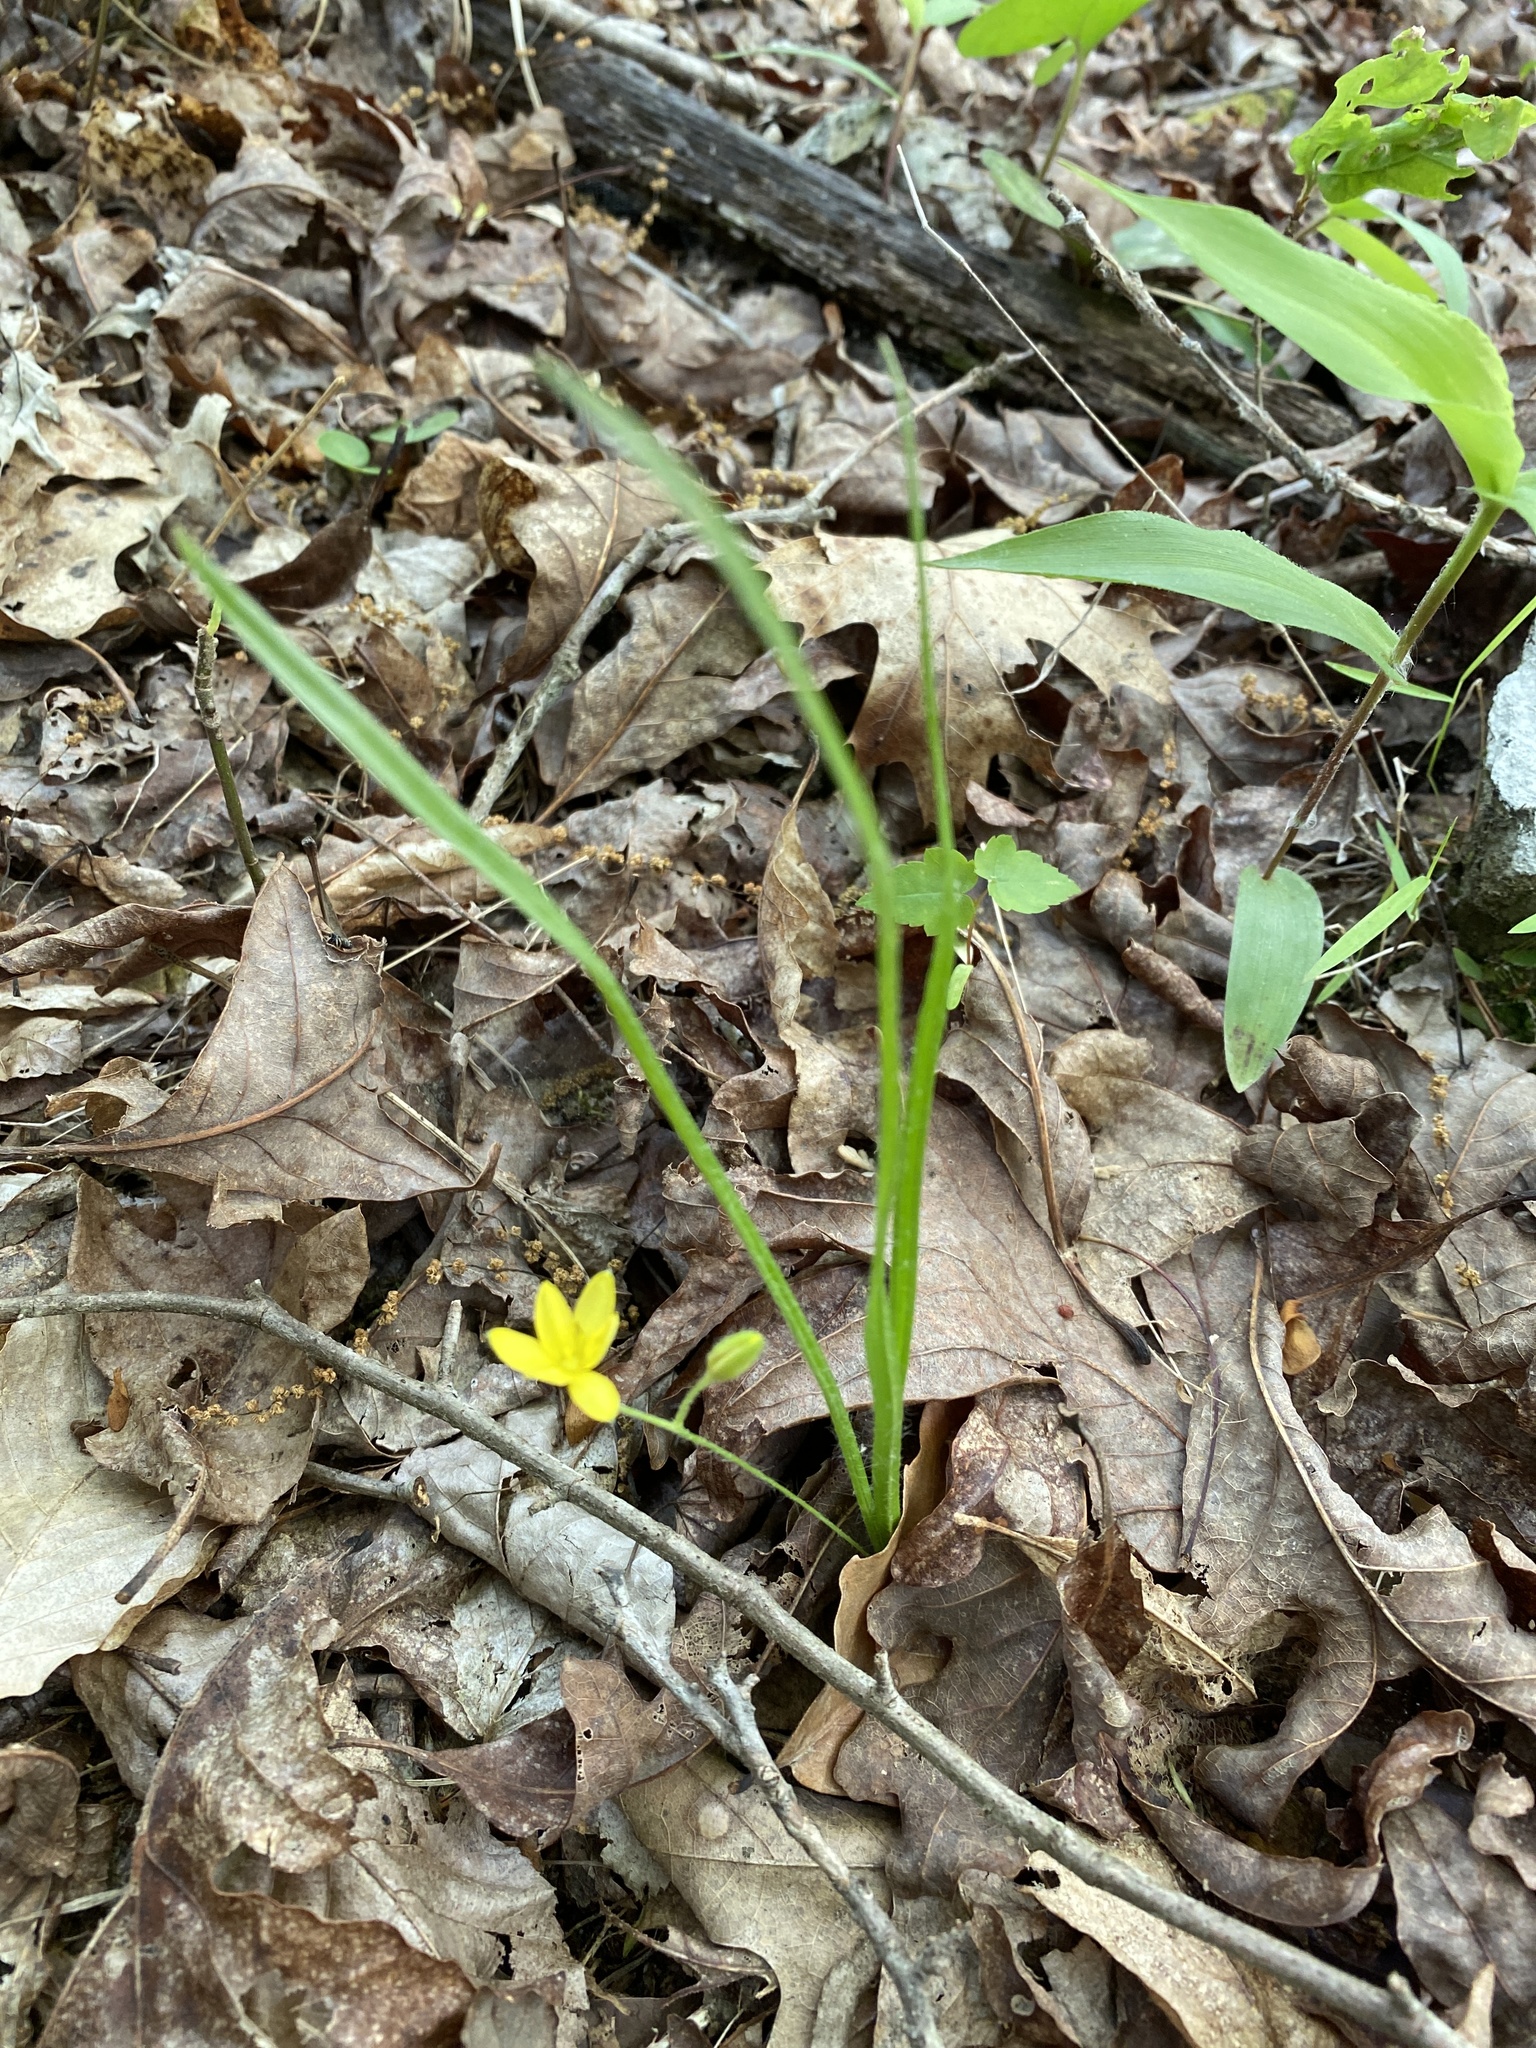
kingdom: Plantae
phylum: Tracheophyta
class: Liliopsida
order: Asparagales
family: Hypoxidaceae
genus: Hypoxis
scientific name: Hypoxis hirsuta
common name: Common goldstar
